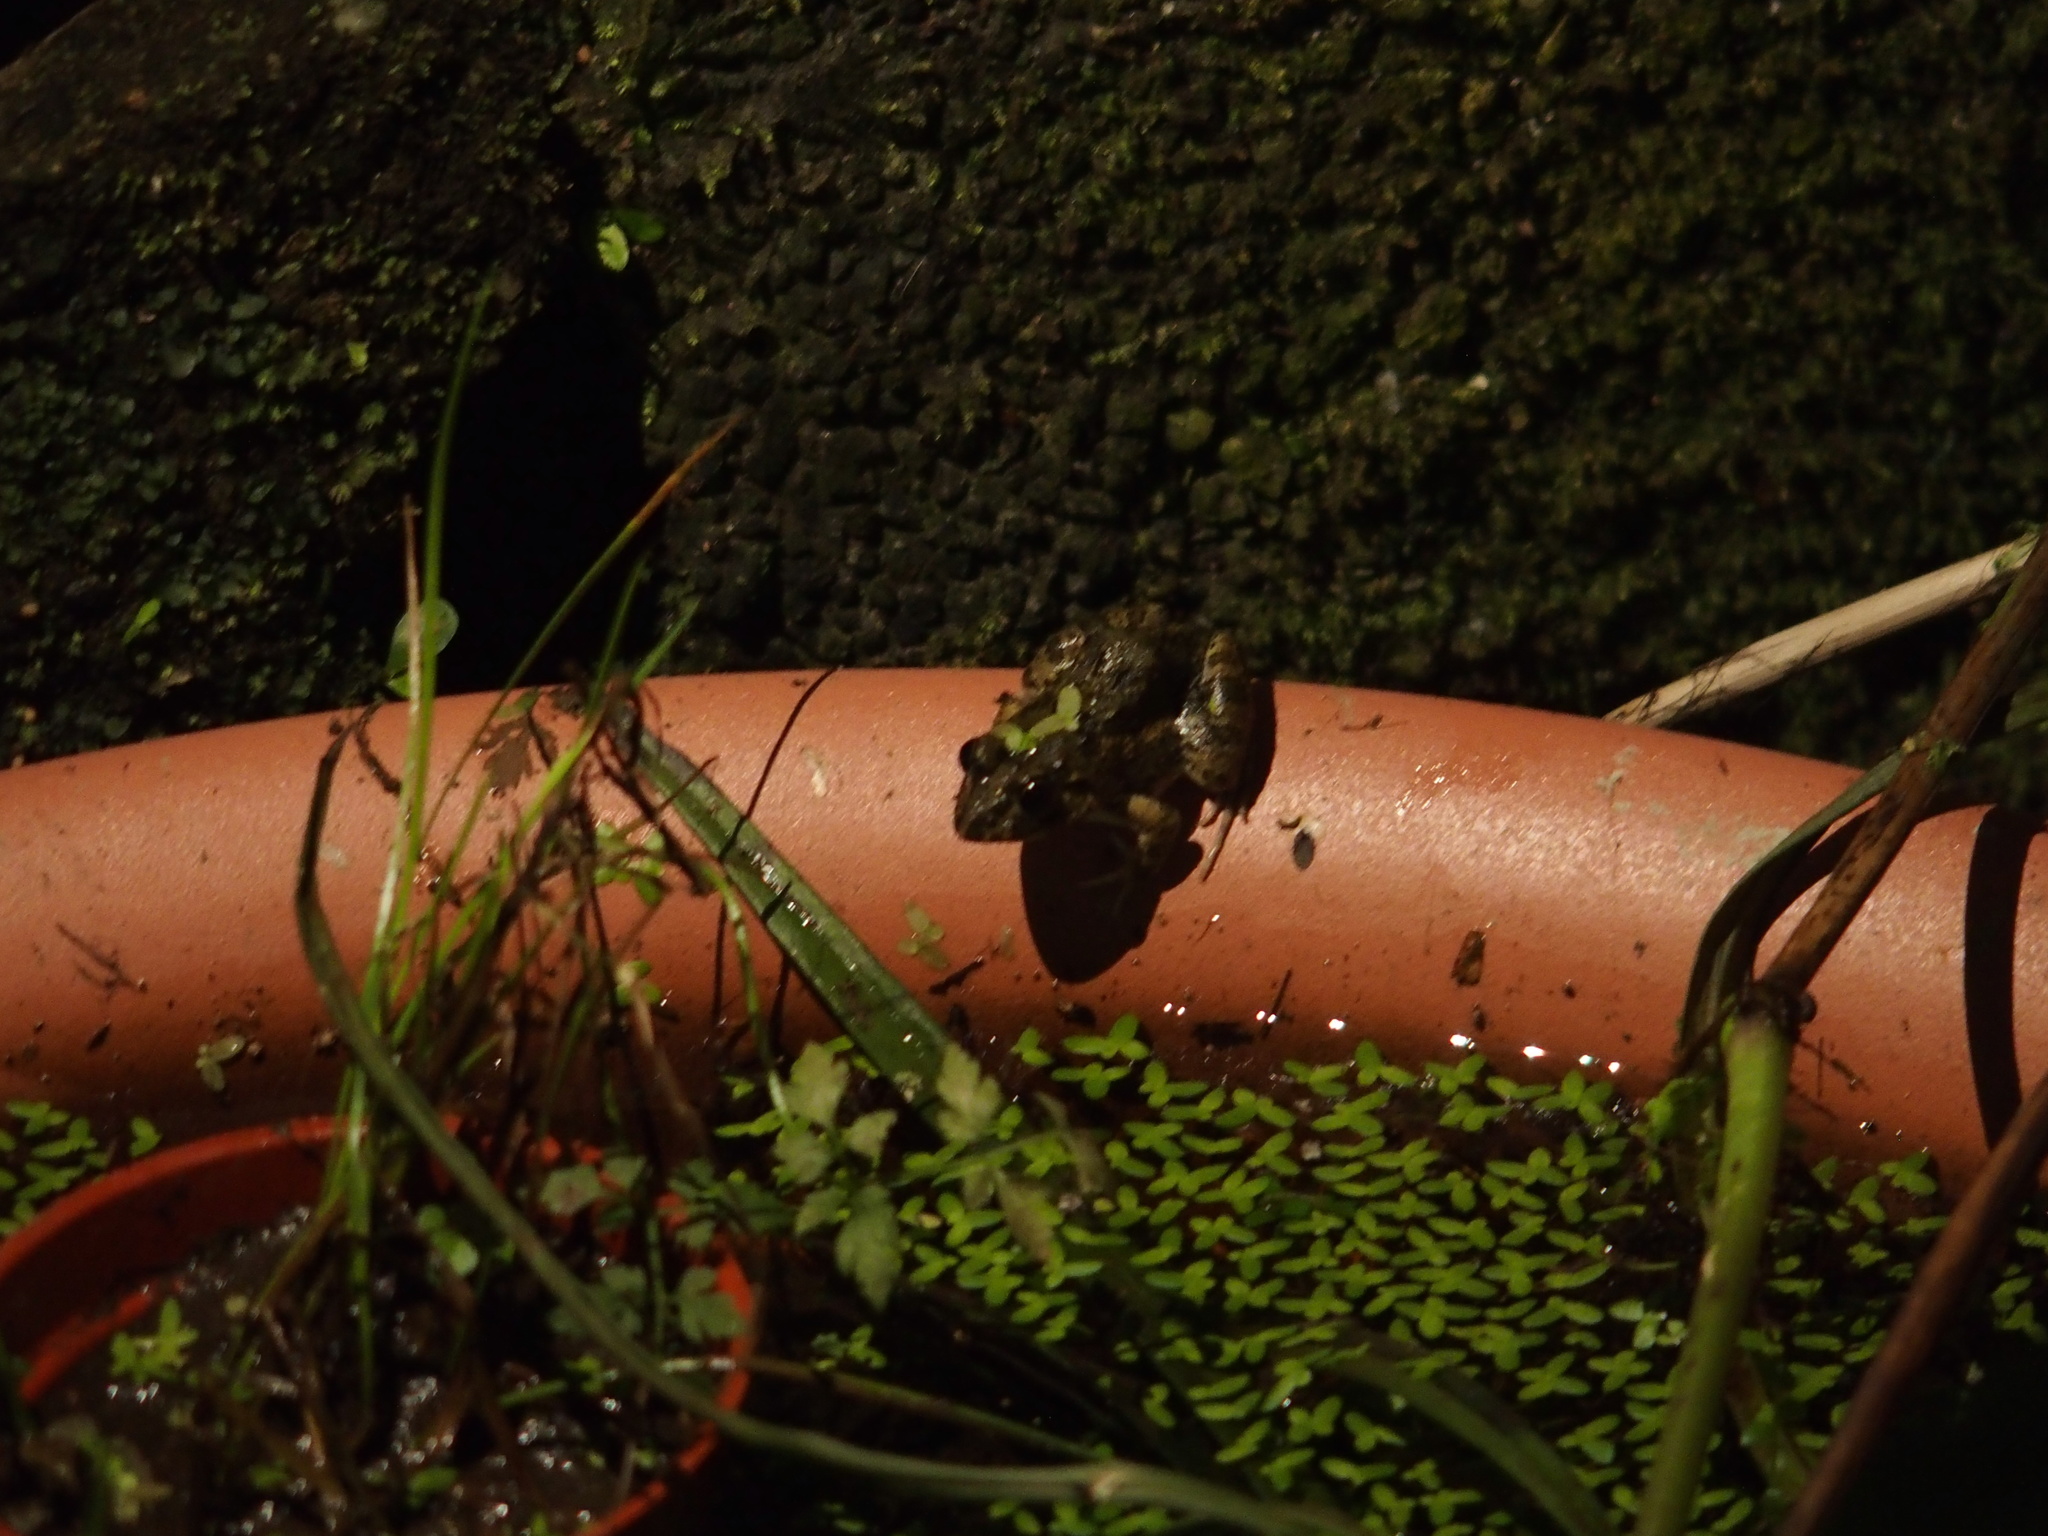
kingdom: Animalia
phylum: Chordata
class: Amphibia
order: Anura
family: Dicroglossidae
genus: Fejervarya
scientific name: Fejervarya limnocharis
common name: Asian grass frog/common pond frog/field frog/grass frog/indian rice frog
